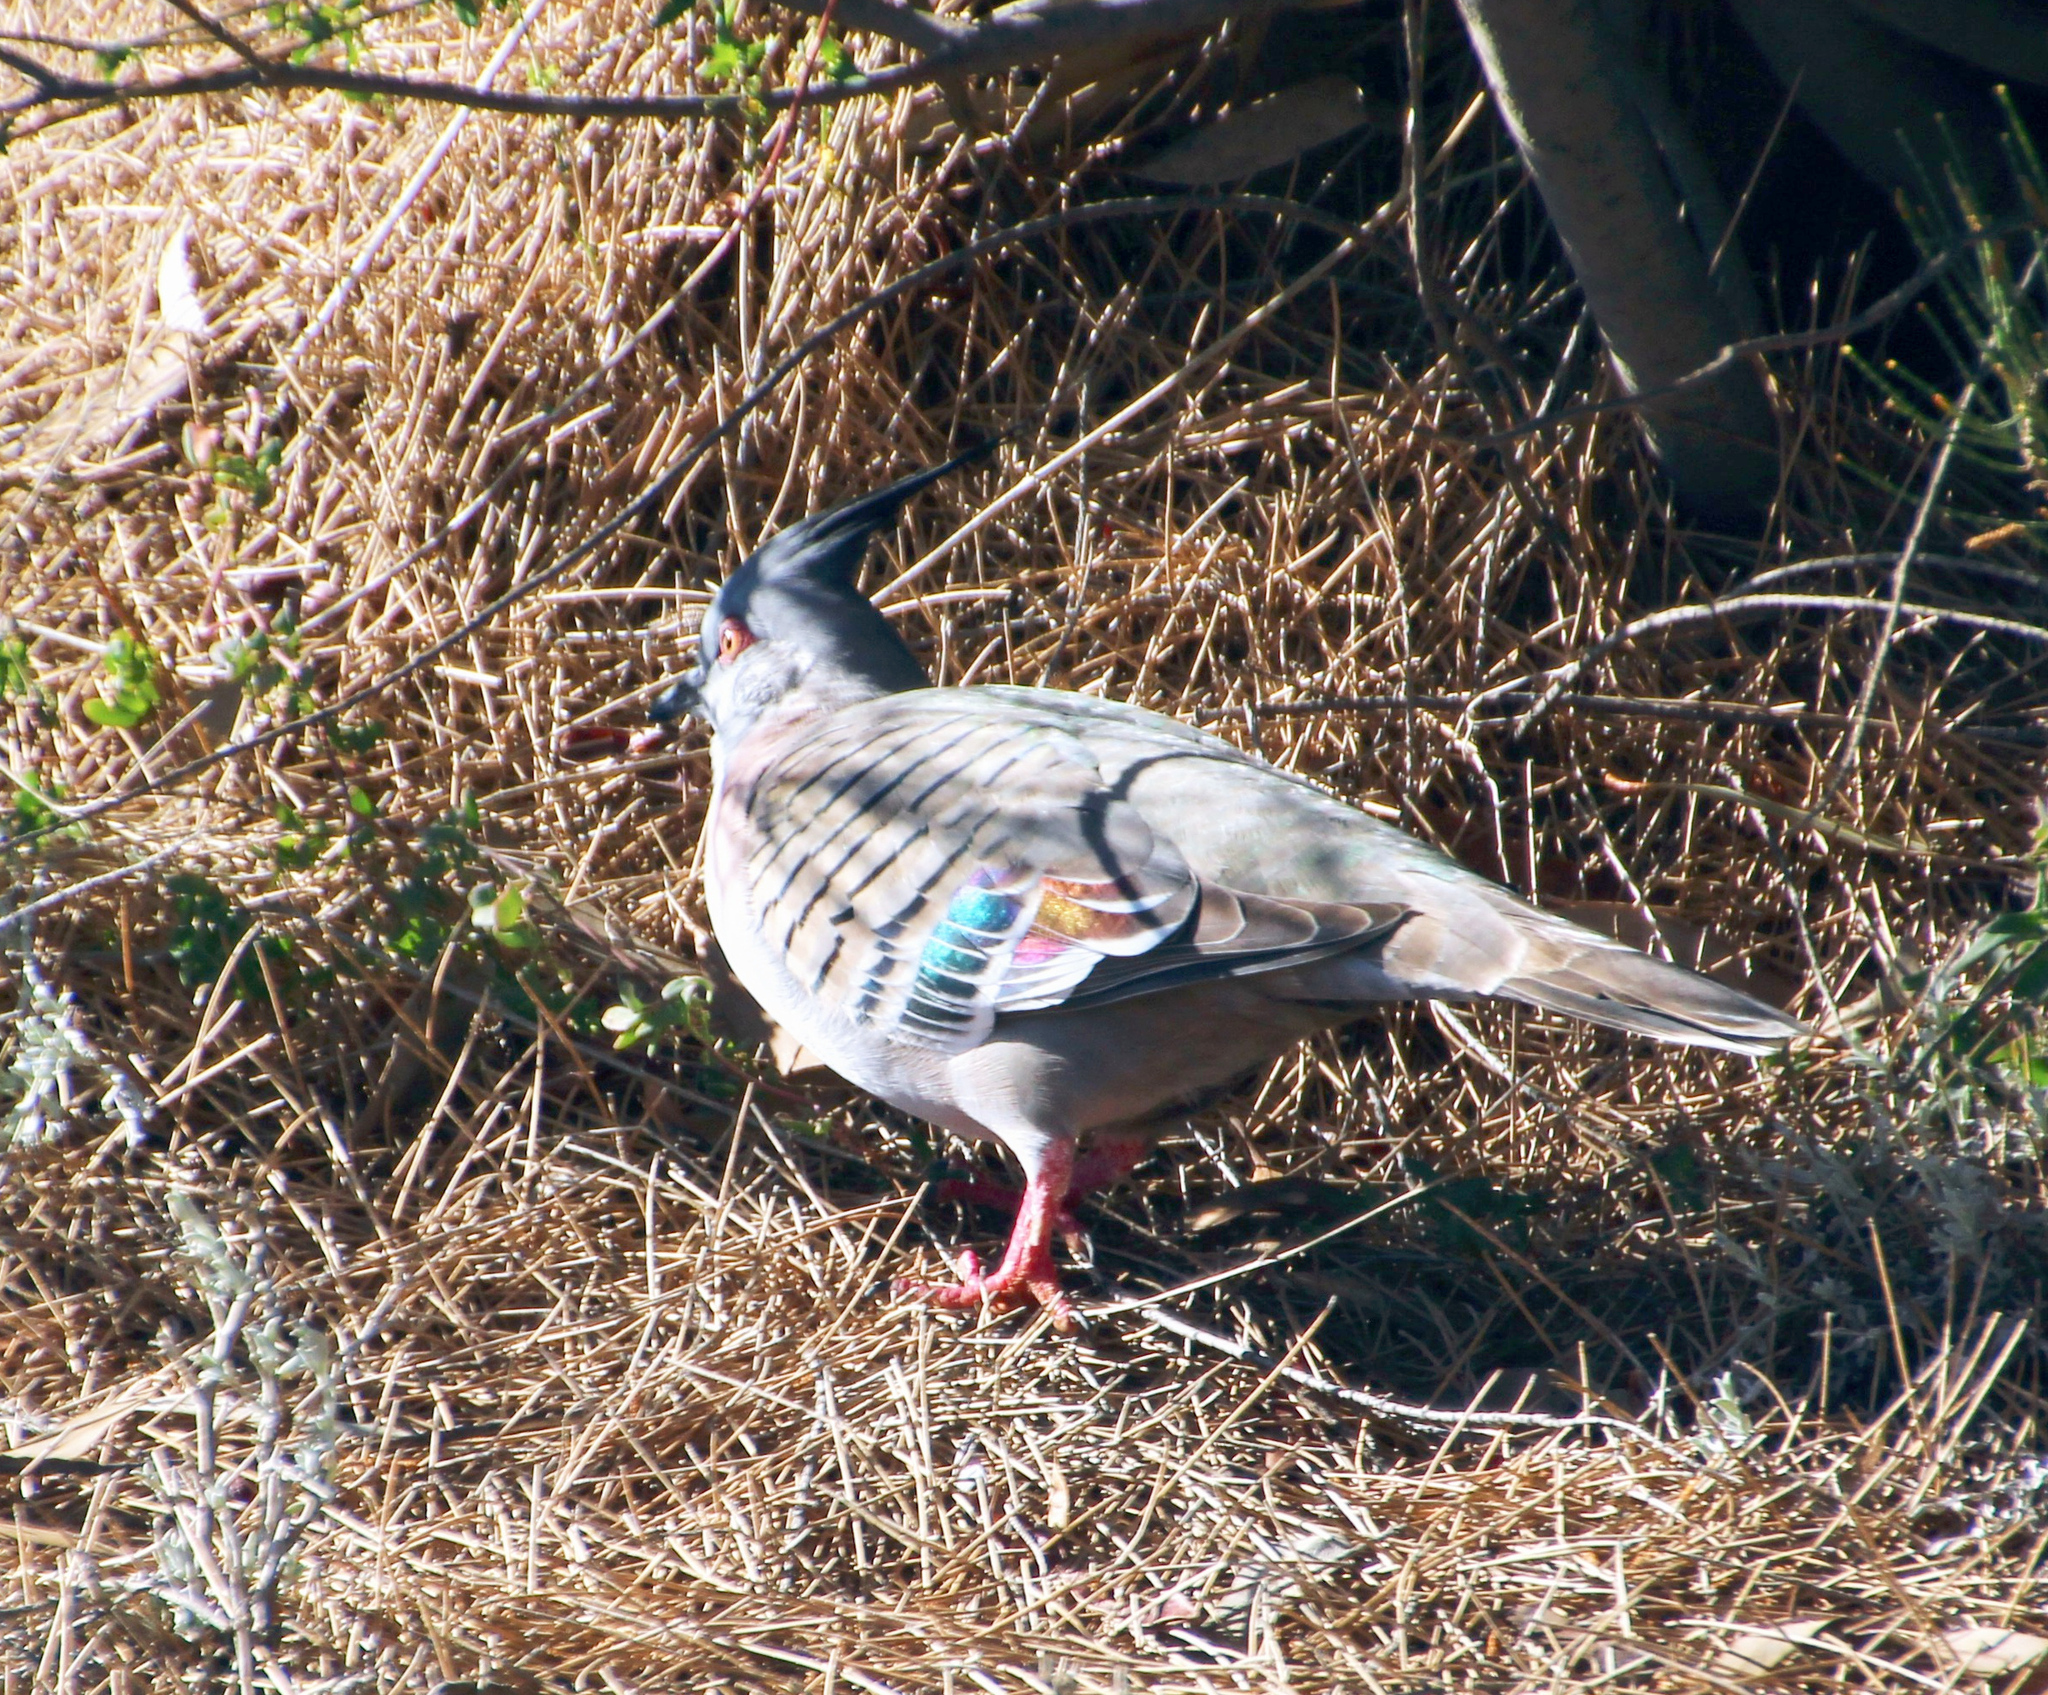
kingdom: Animalia
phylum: Chordata
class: Aves
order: Columbiformes
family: Columbidae
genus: Ocyphaps
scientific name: Ocyphaps lophotes
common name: Crested pigeon
